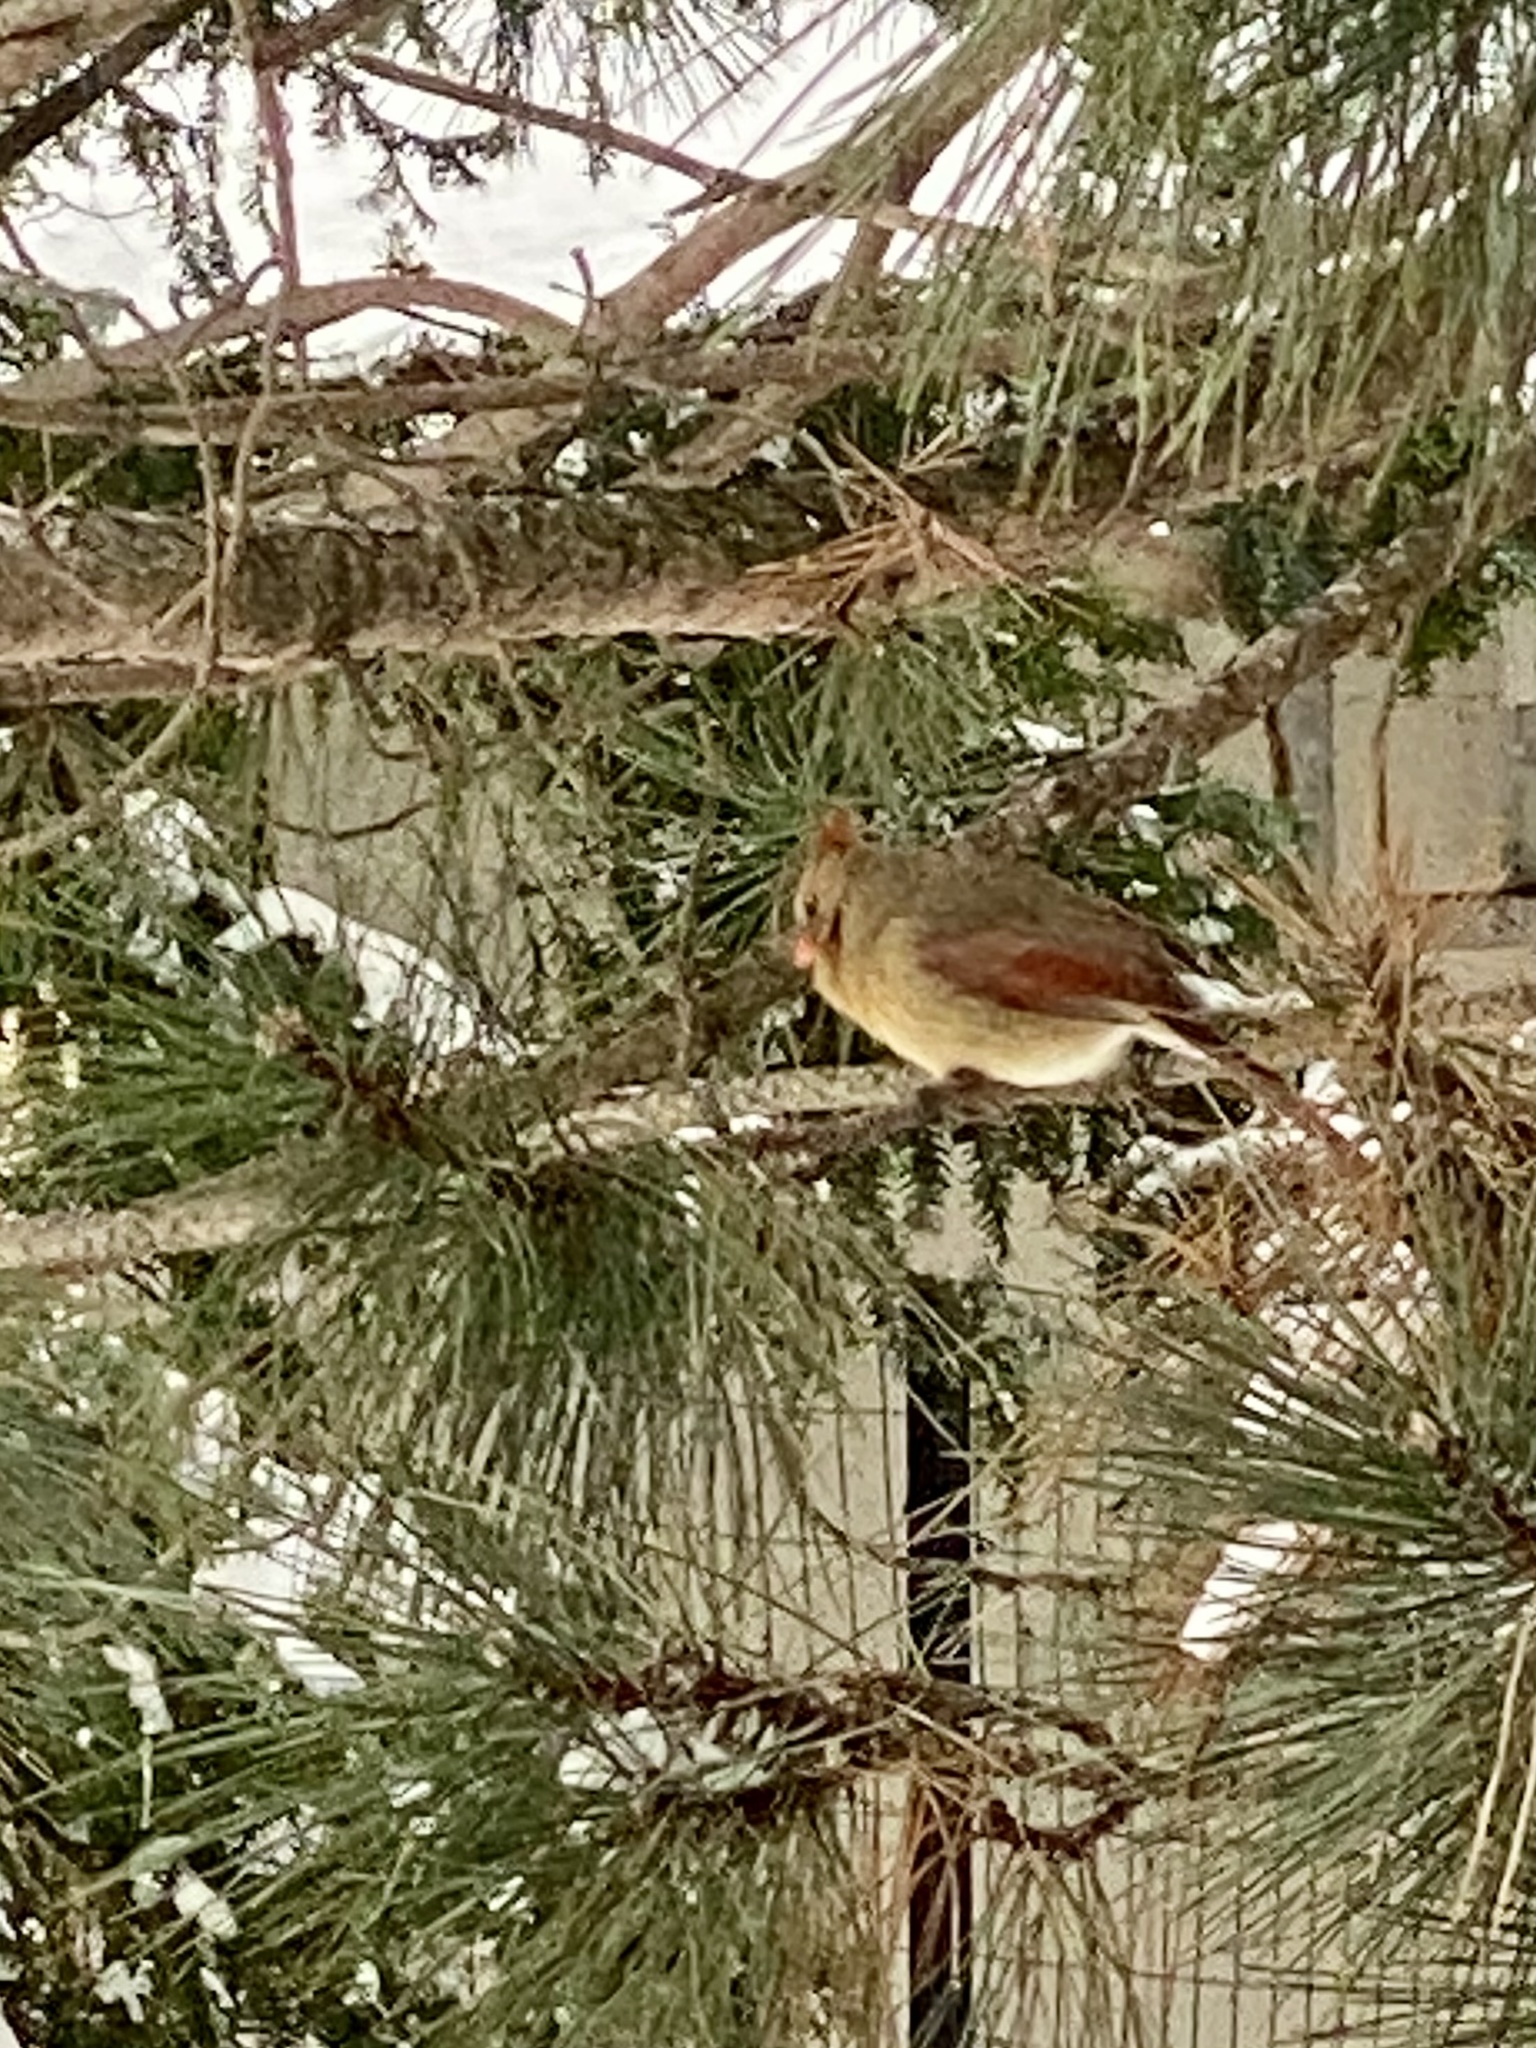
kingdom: Animalia
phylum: Chordata
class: Aves
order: Passeriformes
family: Cardinalidae
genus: Cardinalis
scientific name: Cardinalis cardinalis
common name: Northern cardinal
